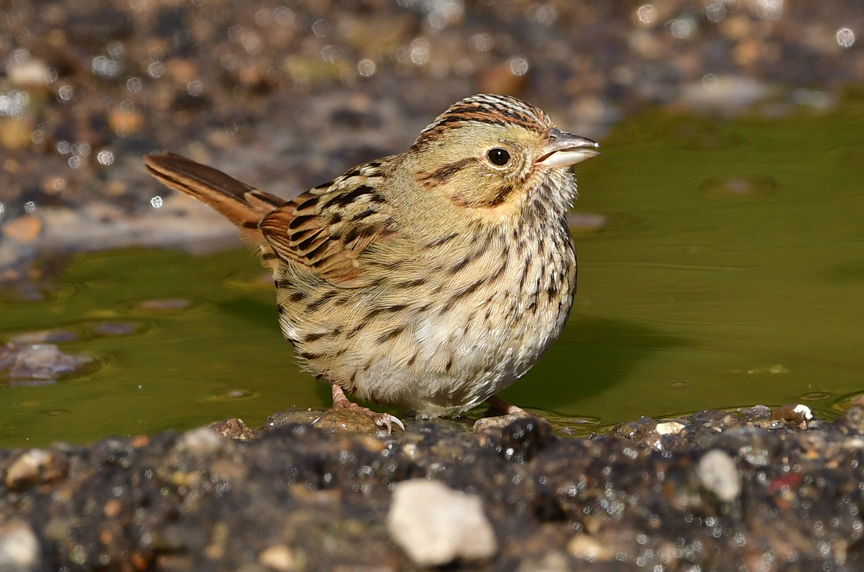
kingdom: Animalia
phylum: Chordata
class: Aves
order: Passeriformes
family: Passerellidae
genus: Melospiza
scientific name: Melospiza lincolnii
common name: Lincoln's sparrow
